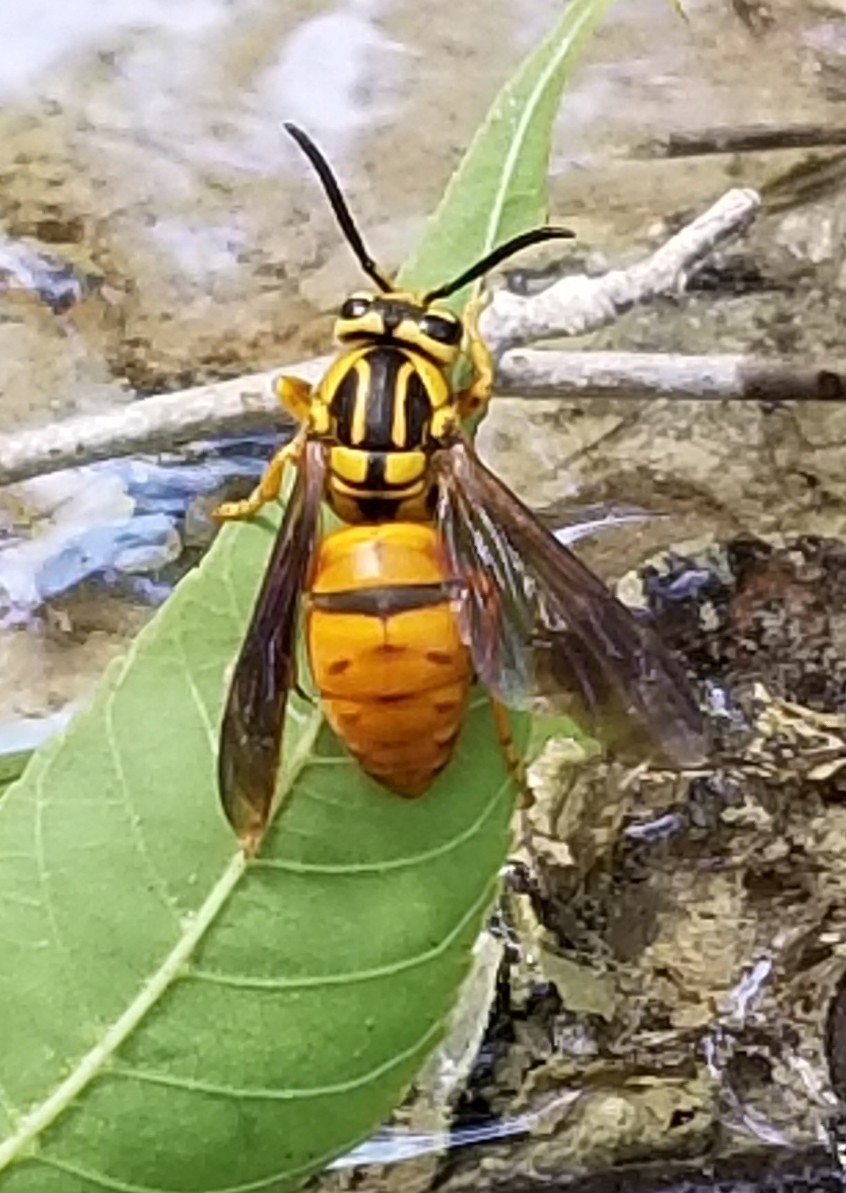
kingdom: Animalia
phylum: Arthropoda
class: Insecta
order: Hymenoptera
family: Vespidae
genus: Vespula
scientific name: Vespula squamosa
